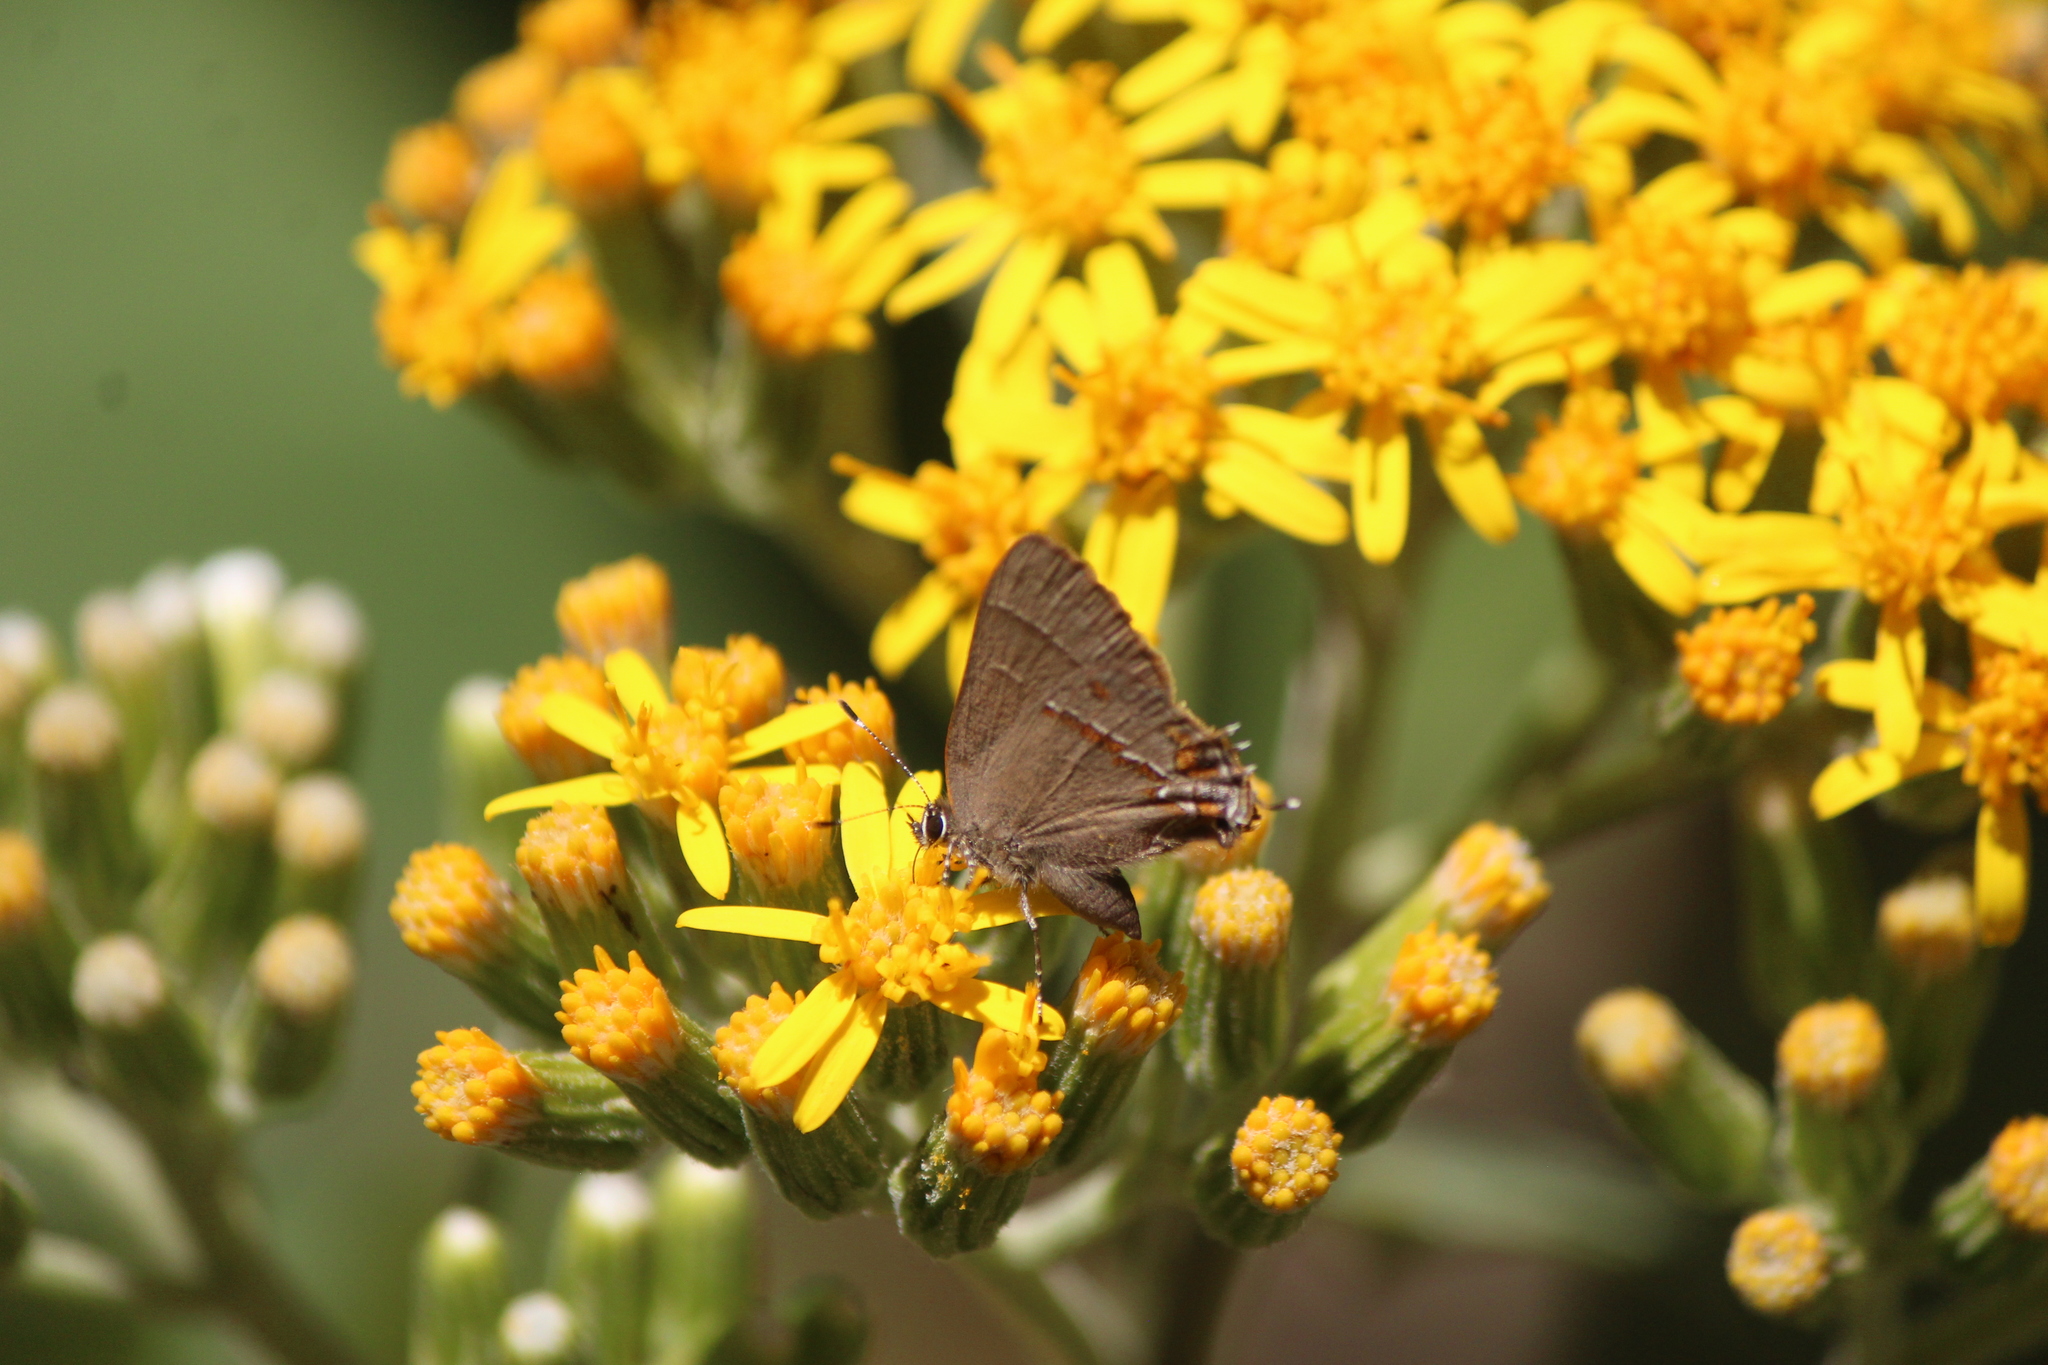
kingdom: Animalia
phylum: Arthropoda
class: Insecta
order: Lepidoptera
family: Lycaenidae
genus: Electrostrymon
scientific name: Electrostrymon
